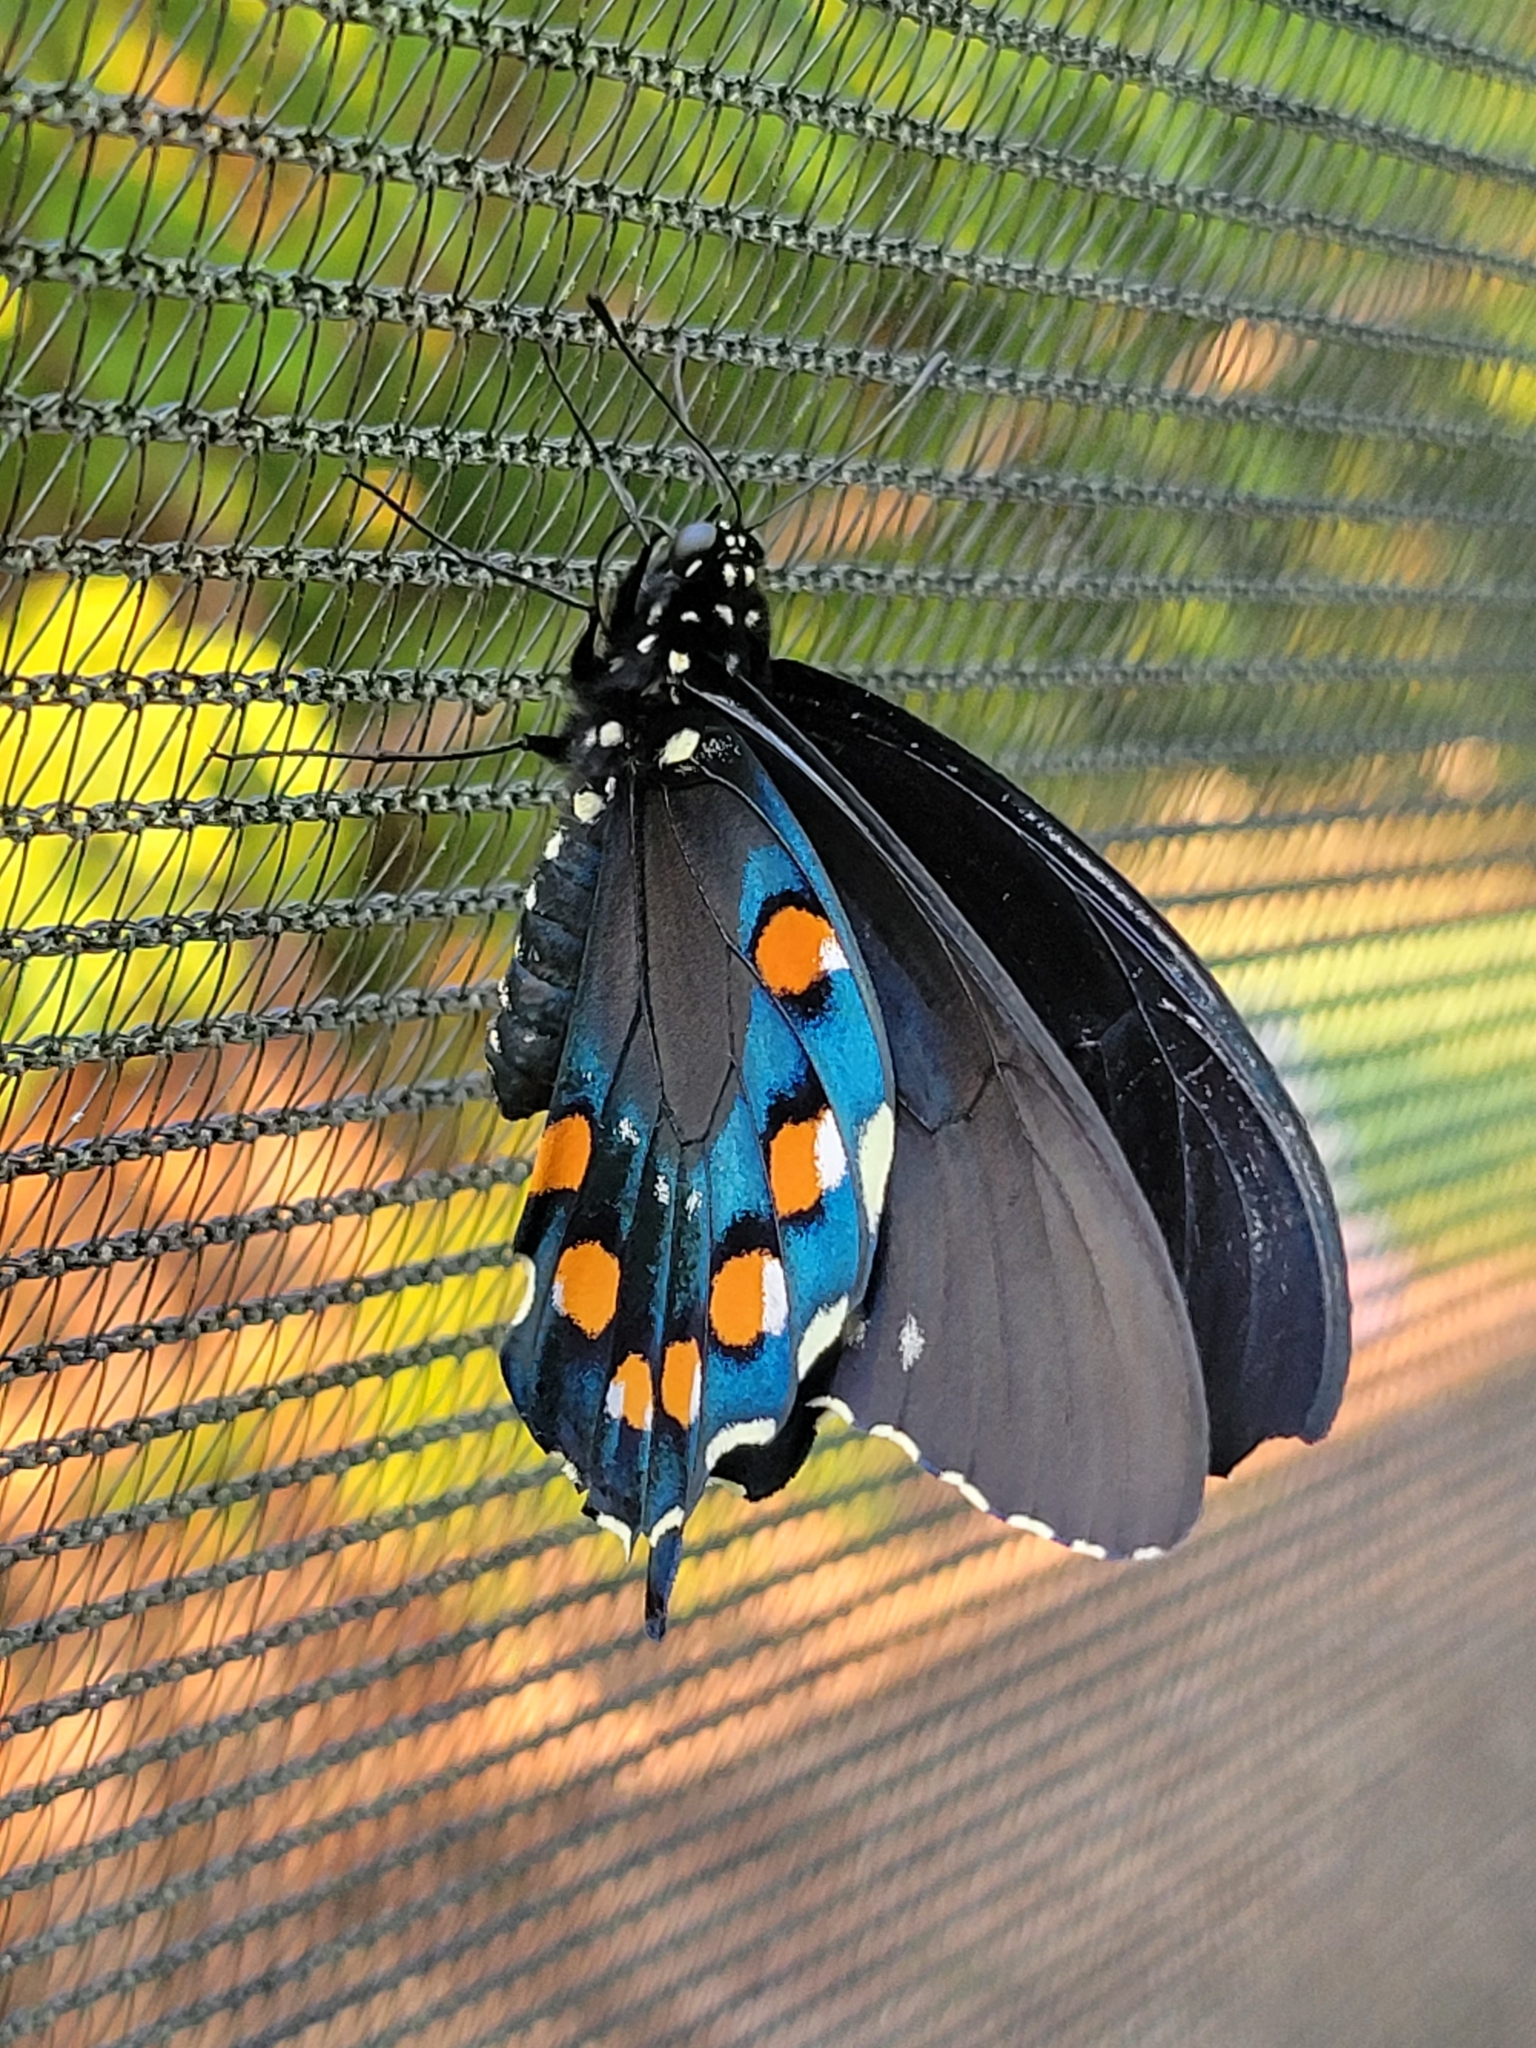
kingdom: Animalia
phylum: Arthropoda
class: Insecta
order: Lepidoptera
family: Papilionidae
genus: Battus
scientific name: Battus philenor
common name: Pipevine swallowtail
